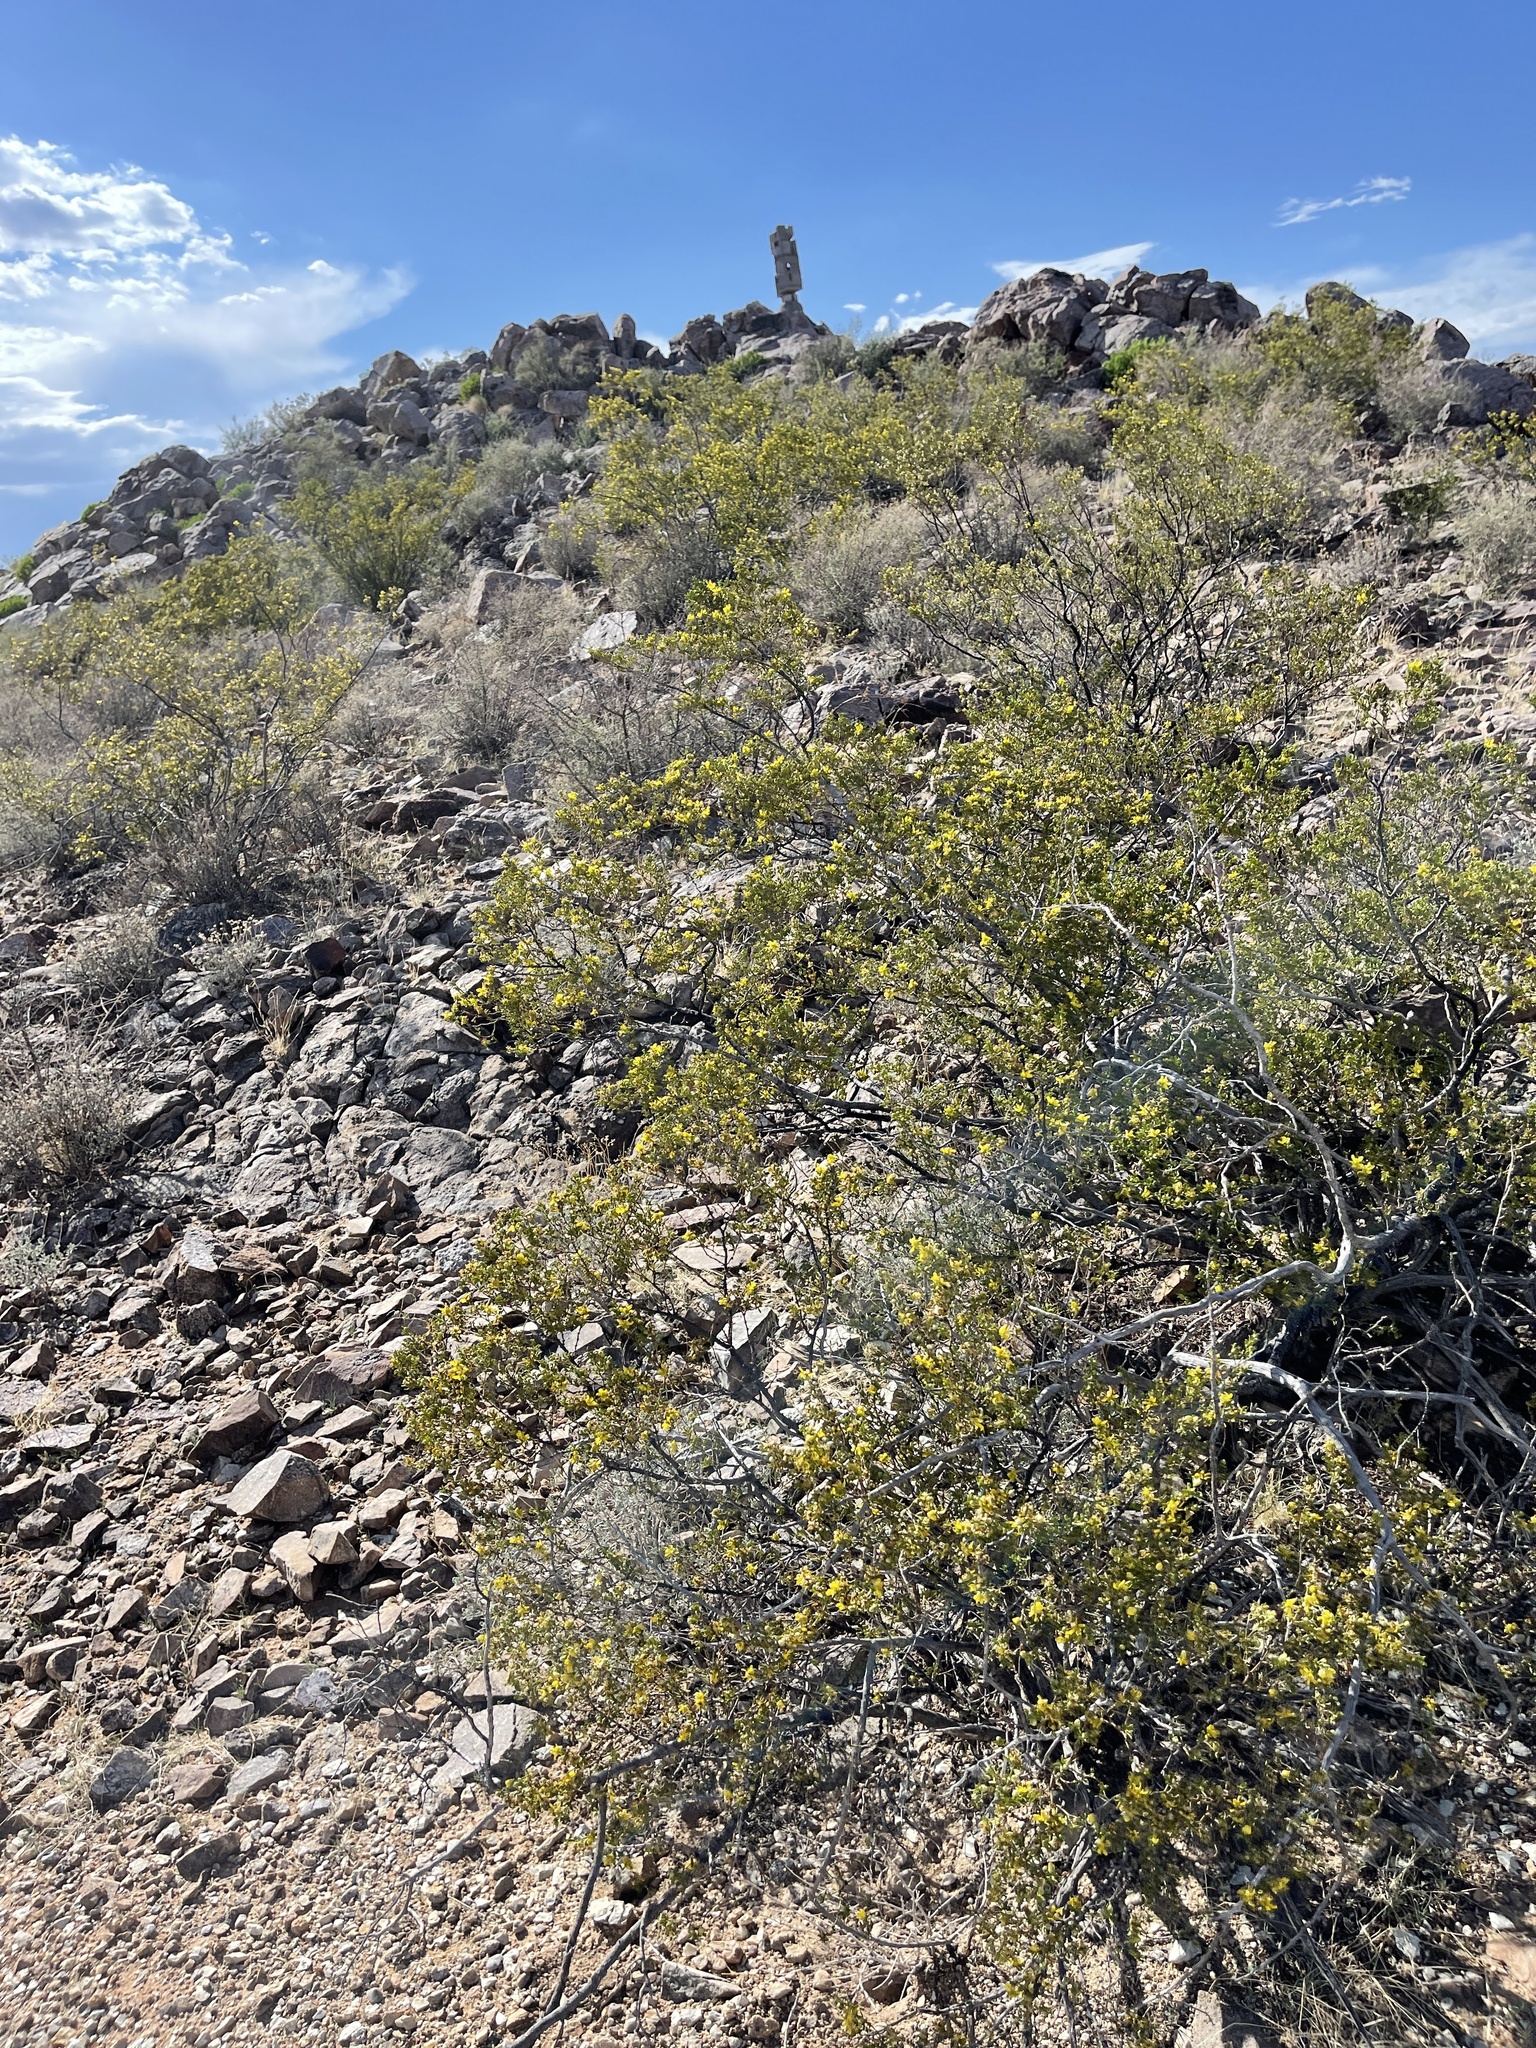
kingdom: Plantae
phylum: Tracheophyta
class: Magnoliopsida
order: Zygophyllales
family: Zygophyllaceae
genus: Larrea
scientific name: Larrea tridentata
